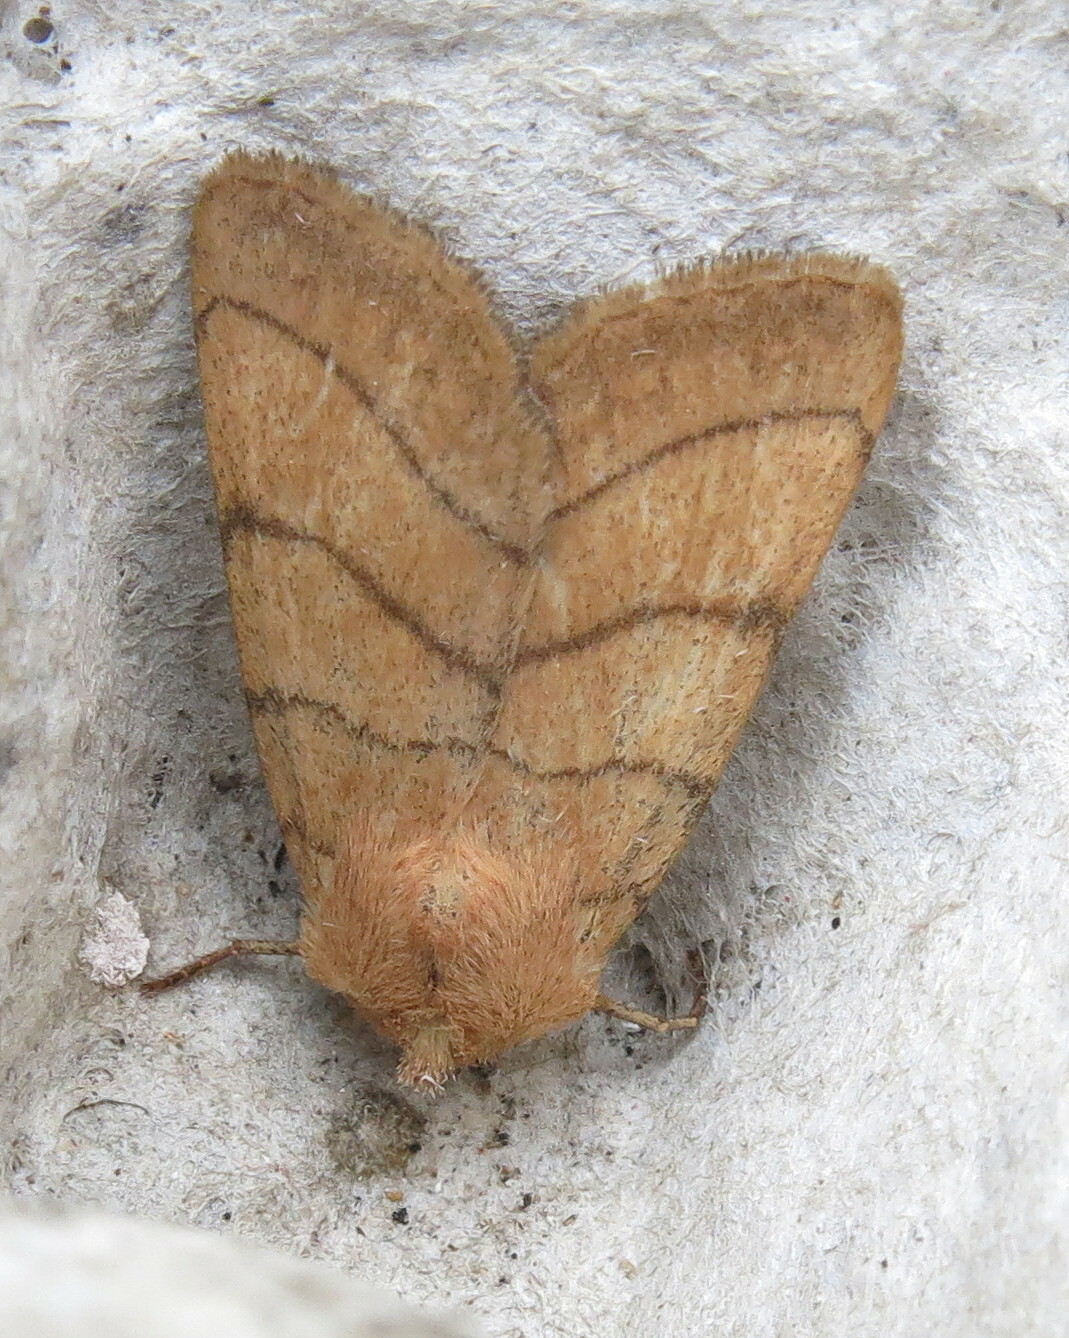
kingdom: Animalia
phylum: Arthropoda
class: Insecta
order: Lepidoptera
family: Noctuidae
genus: Charanyca
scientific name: Charanyca trigrammica
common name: Treble lines
